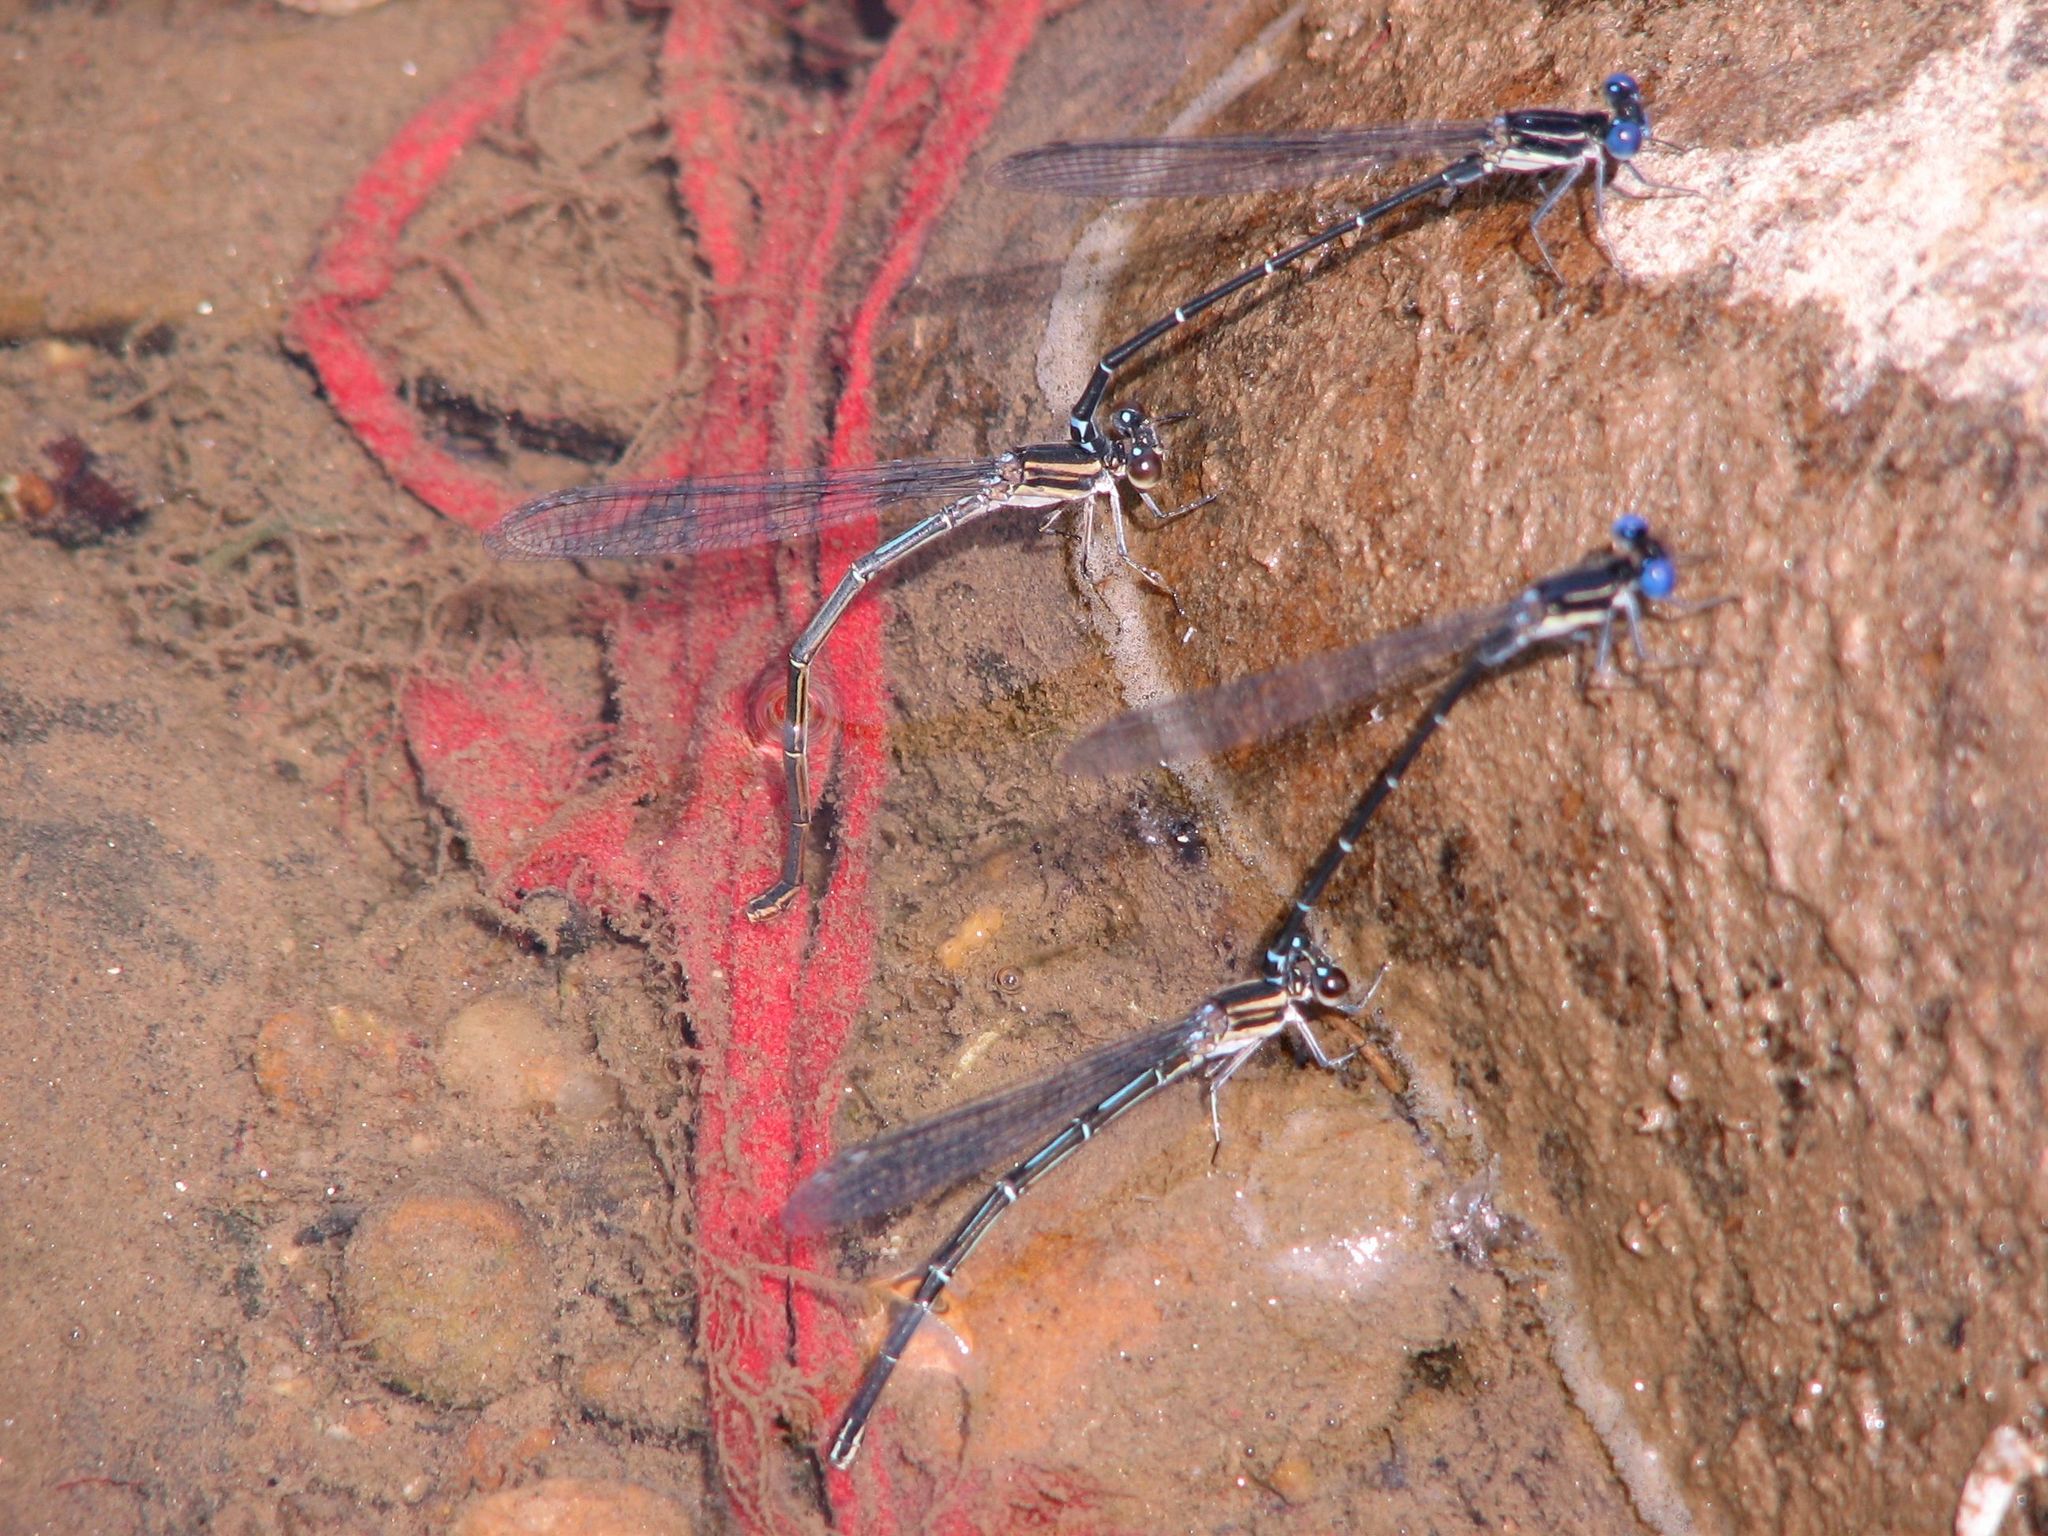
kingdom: Animalia
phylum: Arthropoda
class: Insecta
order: Odonata
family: Coenagrionidae
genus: Argia
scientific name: Argia translata
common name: Dusky dancer
